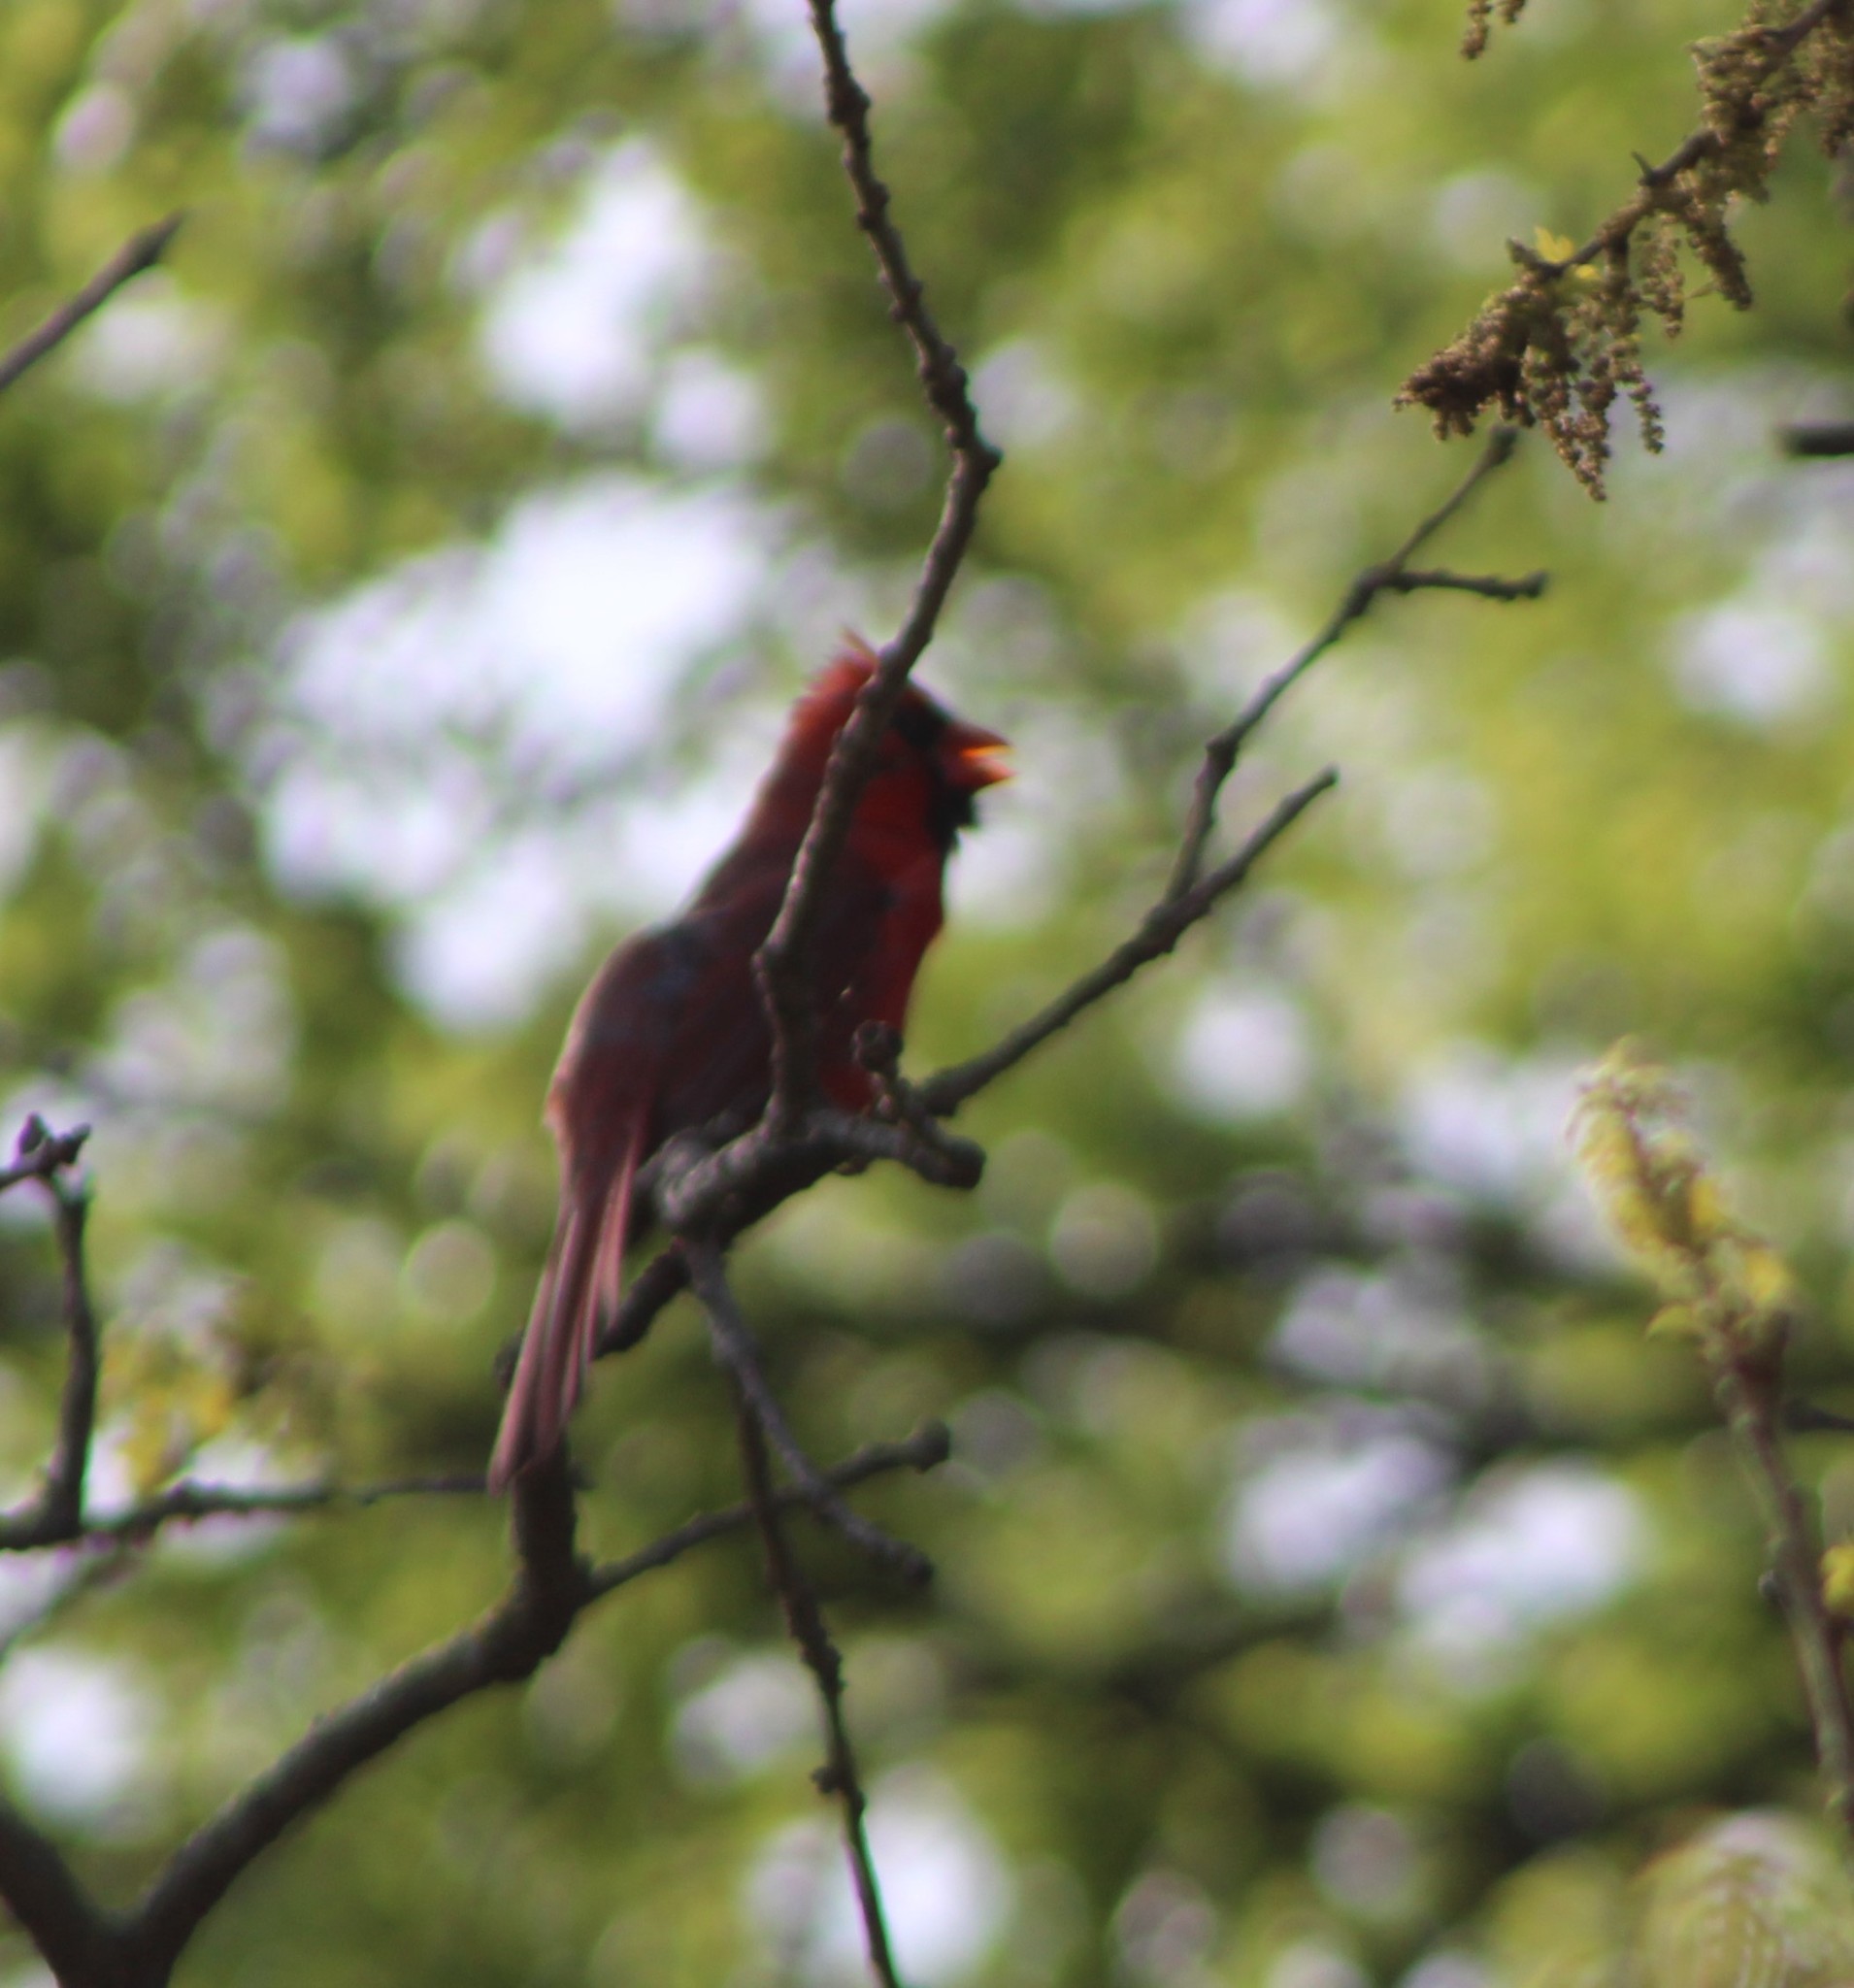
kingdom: Animalia
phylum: Chordata
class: Aves
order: Passeriformes
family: Cardinalidae
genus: Cardinalis
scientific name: Cardinalis cardinalis
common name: Northern cardinal
